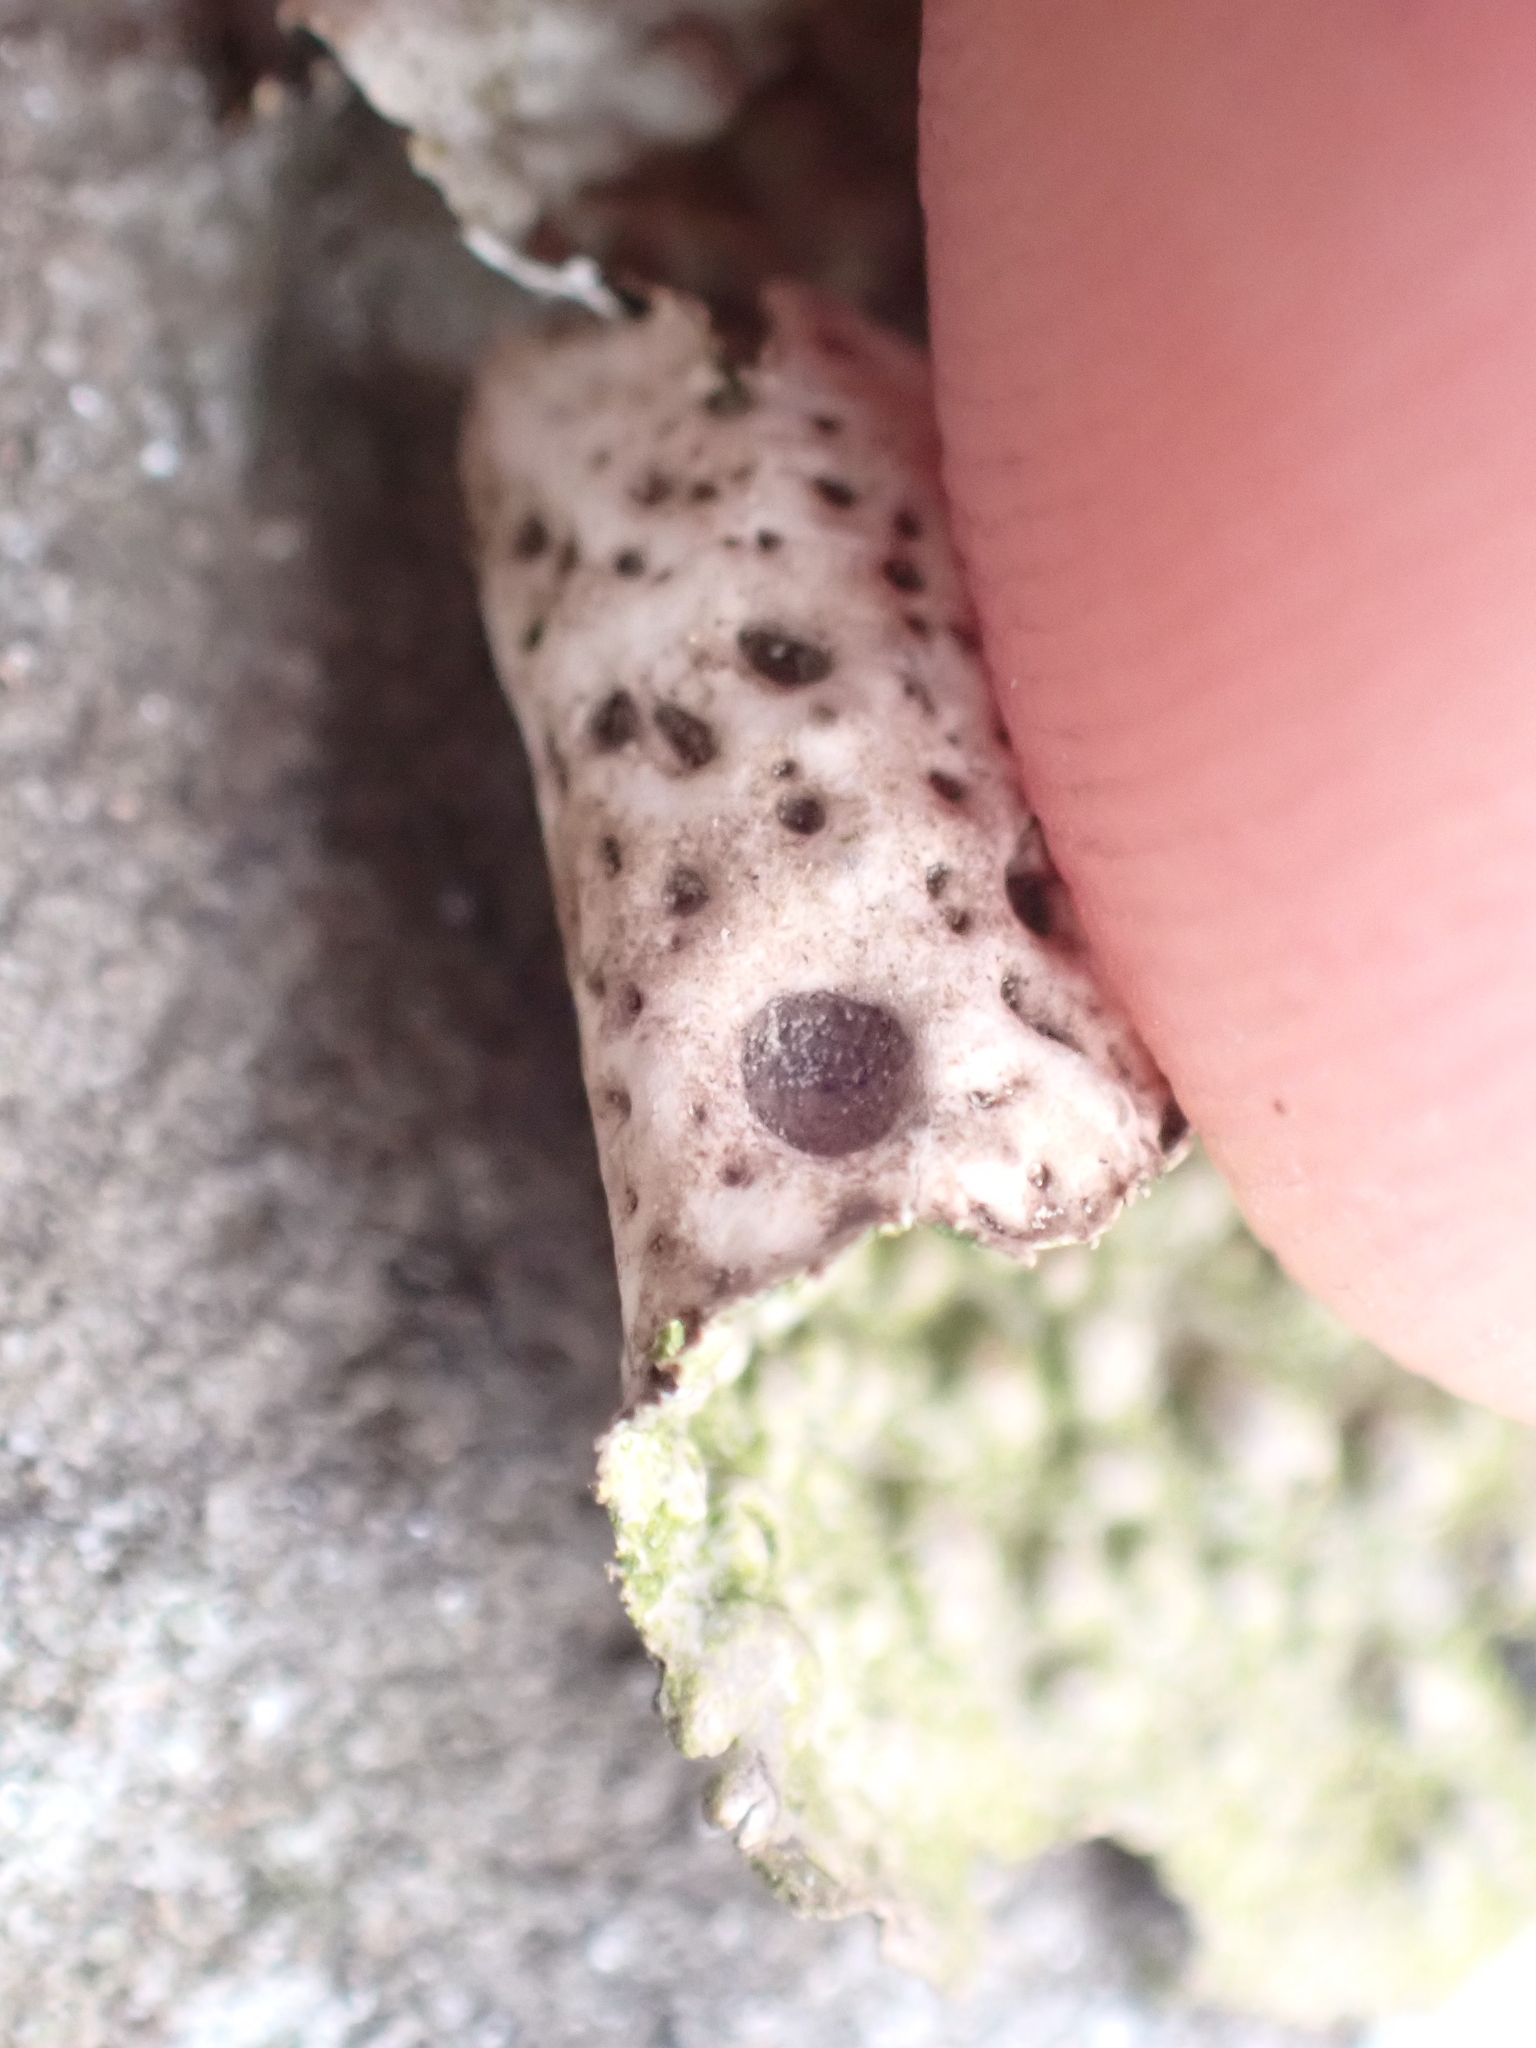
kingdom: Fungi
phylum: Ascomycota
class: Lecanoromycetes
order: Umbilicariales
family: Umbilicariaceae
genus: Lasallia
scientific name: Lasallia papulosa
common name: Common toadskin lichen
